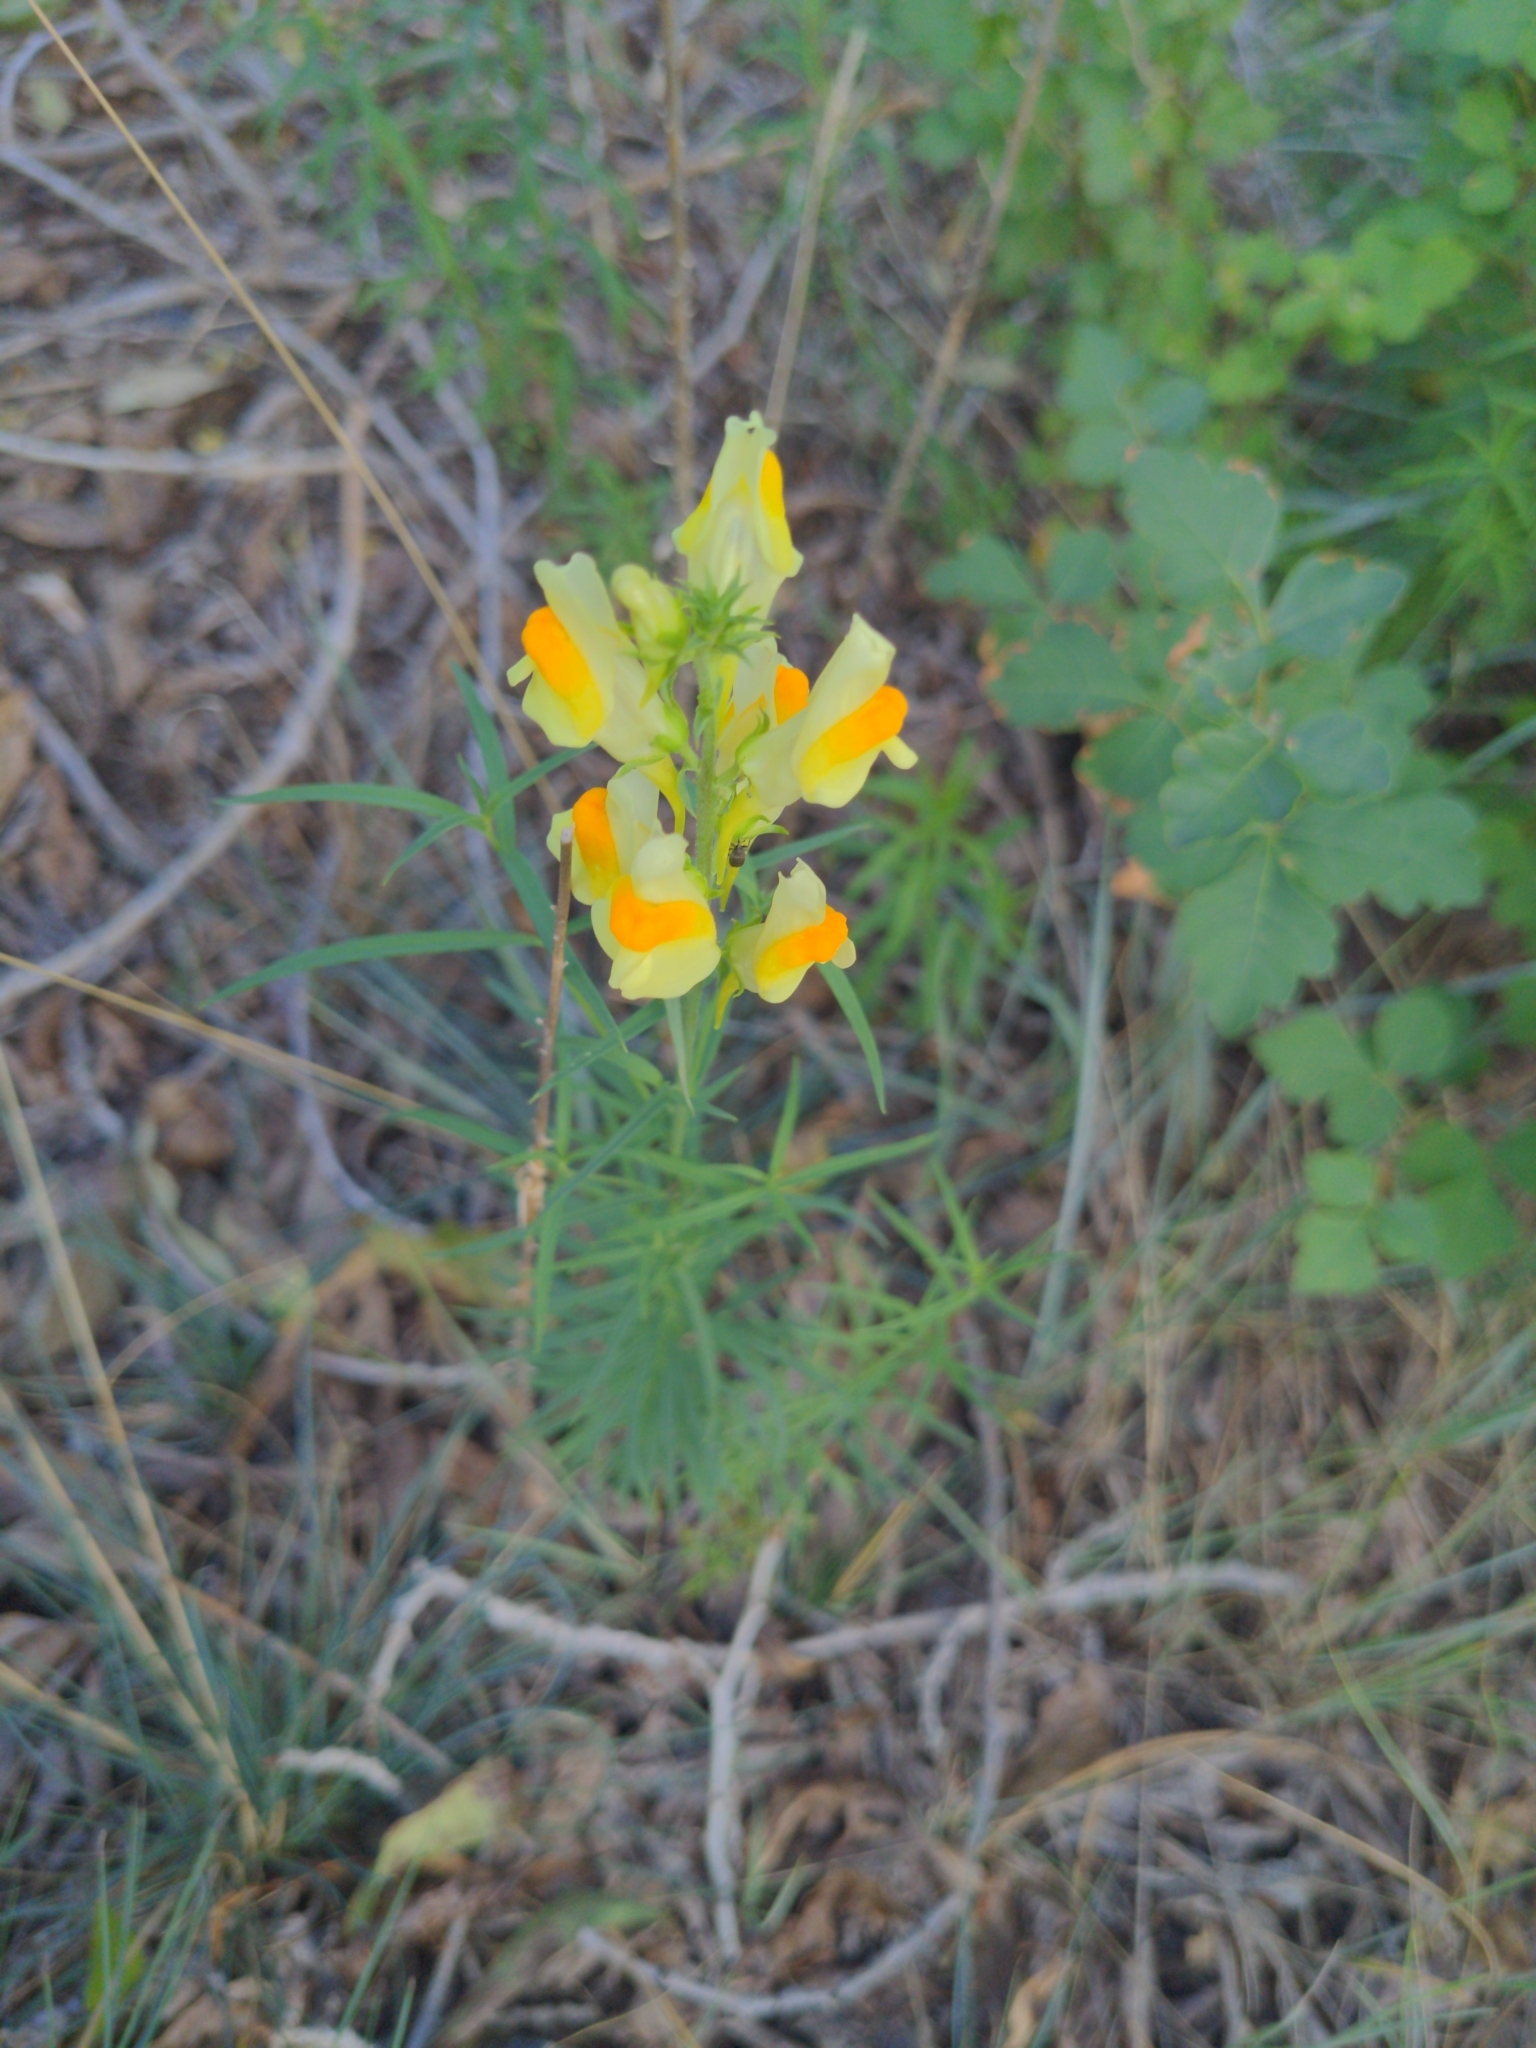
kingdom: Plantae
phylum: Tracheophyta
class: Magnoliopsida
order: Lamiales
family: Plantaginaceae
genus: Linaria
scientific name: Linaria vulgaris
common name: Butter and eggs
